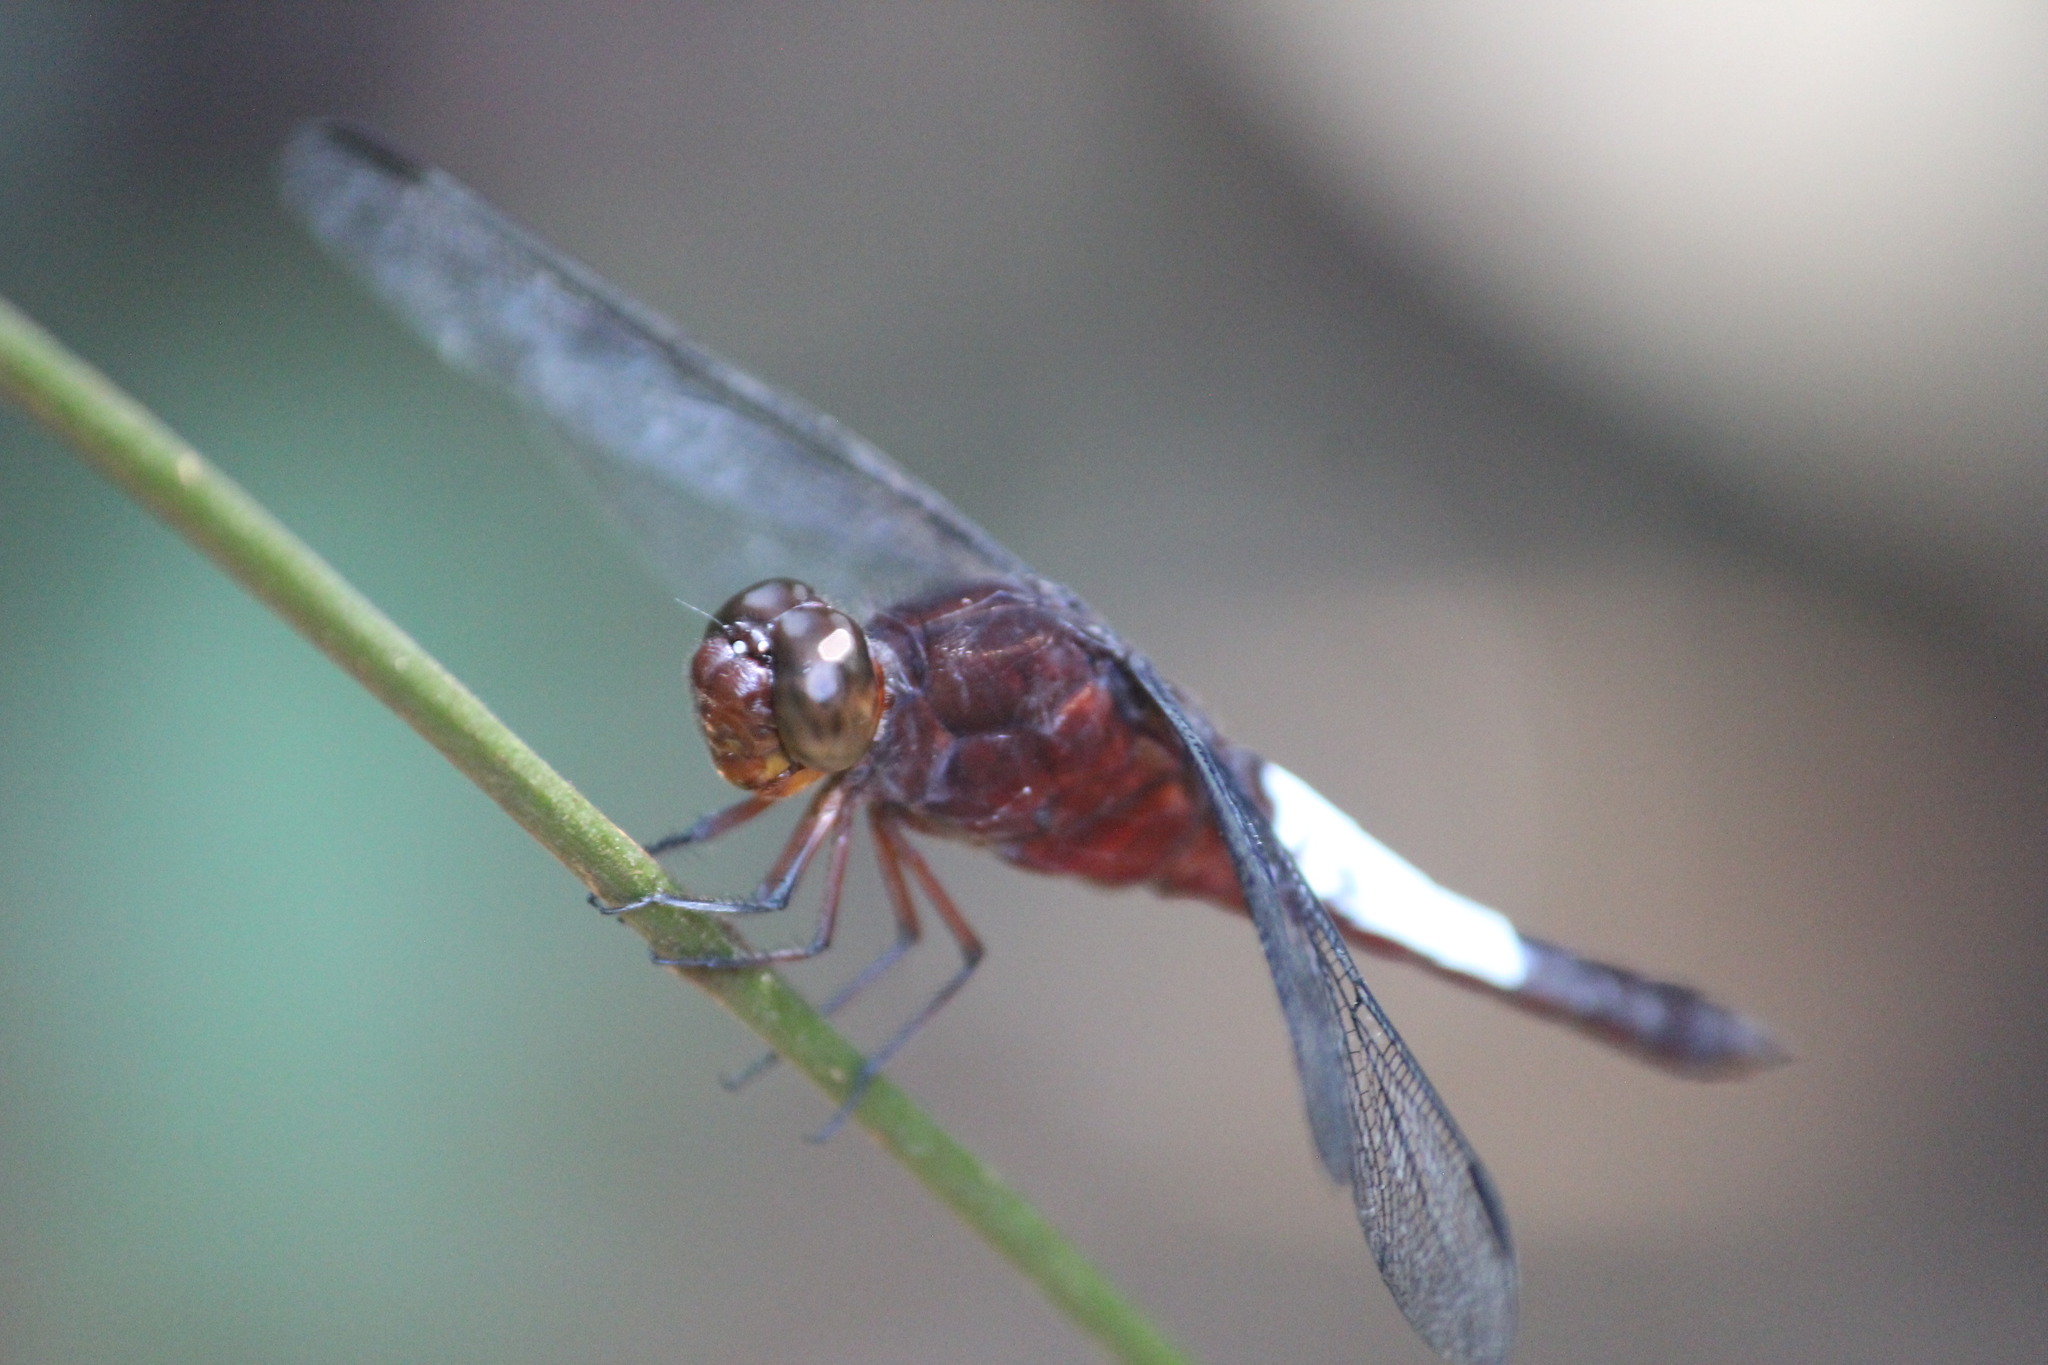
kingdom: Animalia
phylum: Arthropoda
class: Insecta
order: Odonata
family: Libellulidae
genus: Hadrothemis
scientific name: Hadrothemis coacta
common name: Robust jungleskimmer
